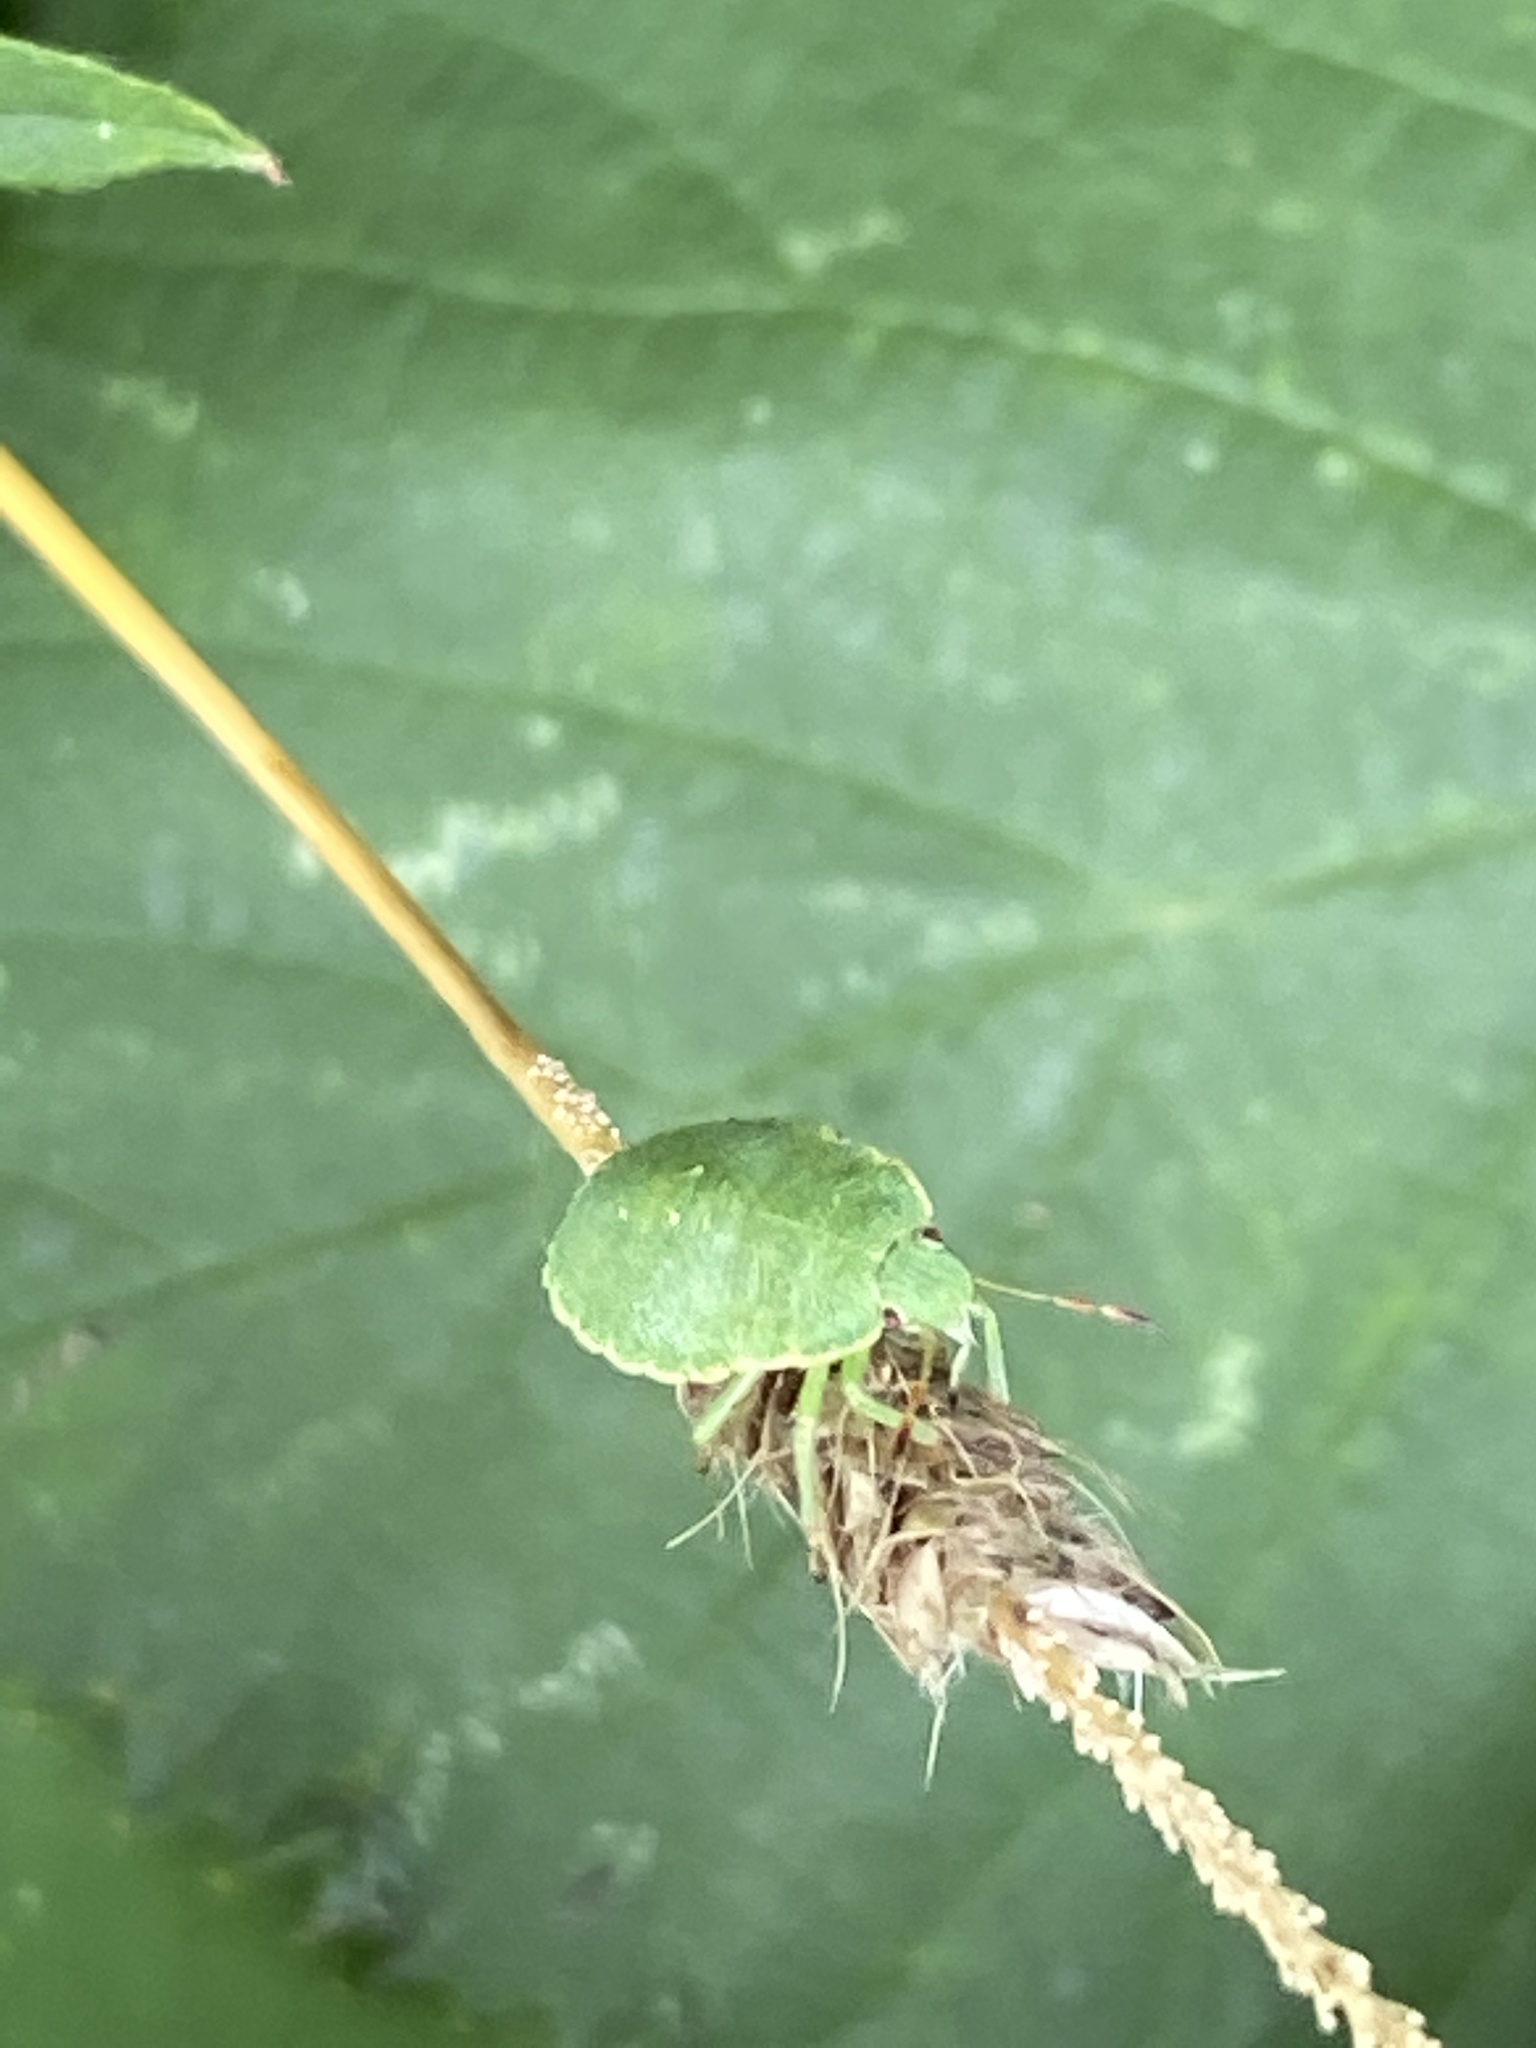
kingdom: Animalia
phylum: Arthropoda
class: Insecta
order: Hemiptera
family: Pentatomidae
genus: Palomena
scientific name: Palomena prasina
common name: Green shieldbug
